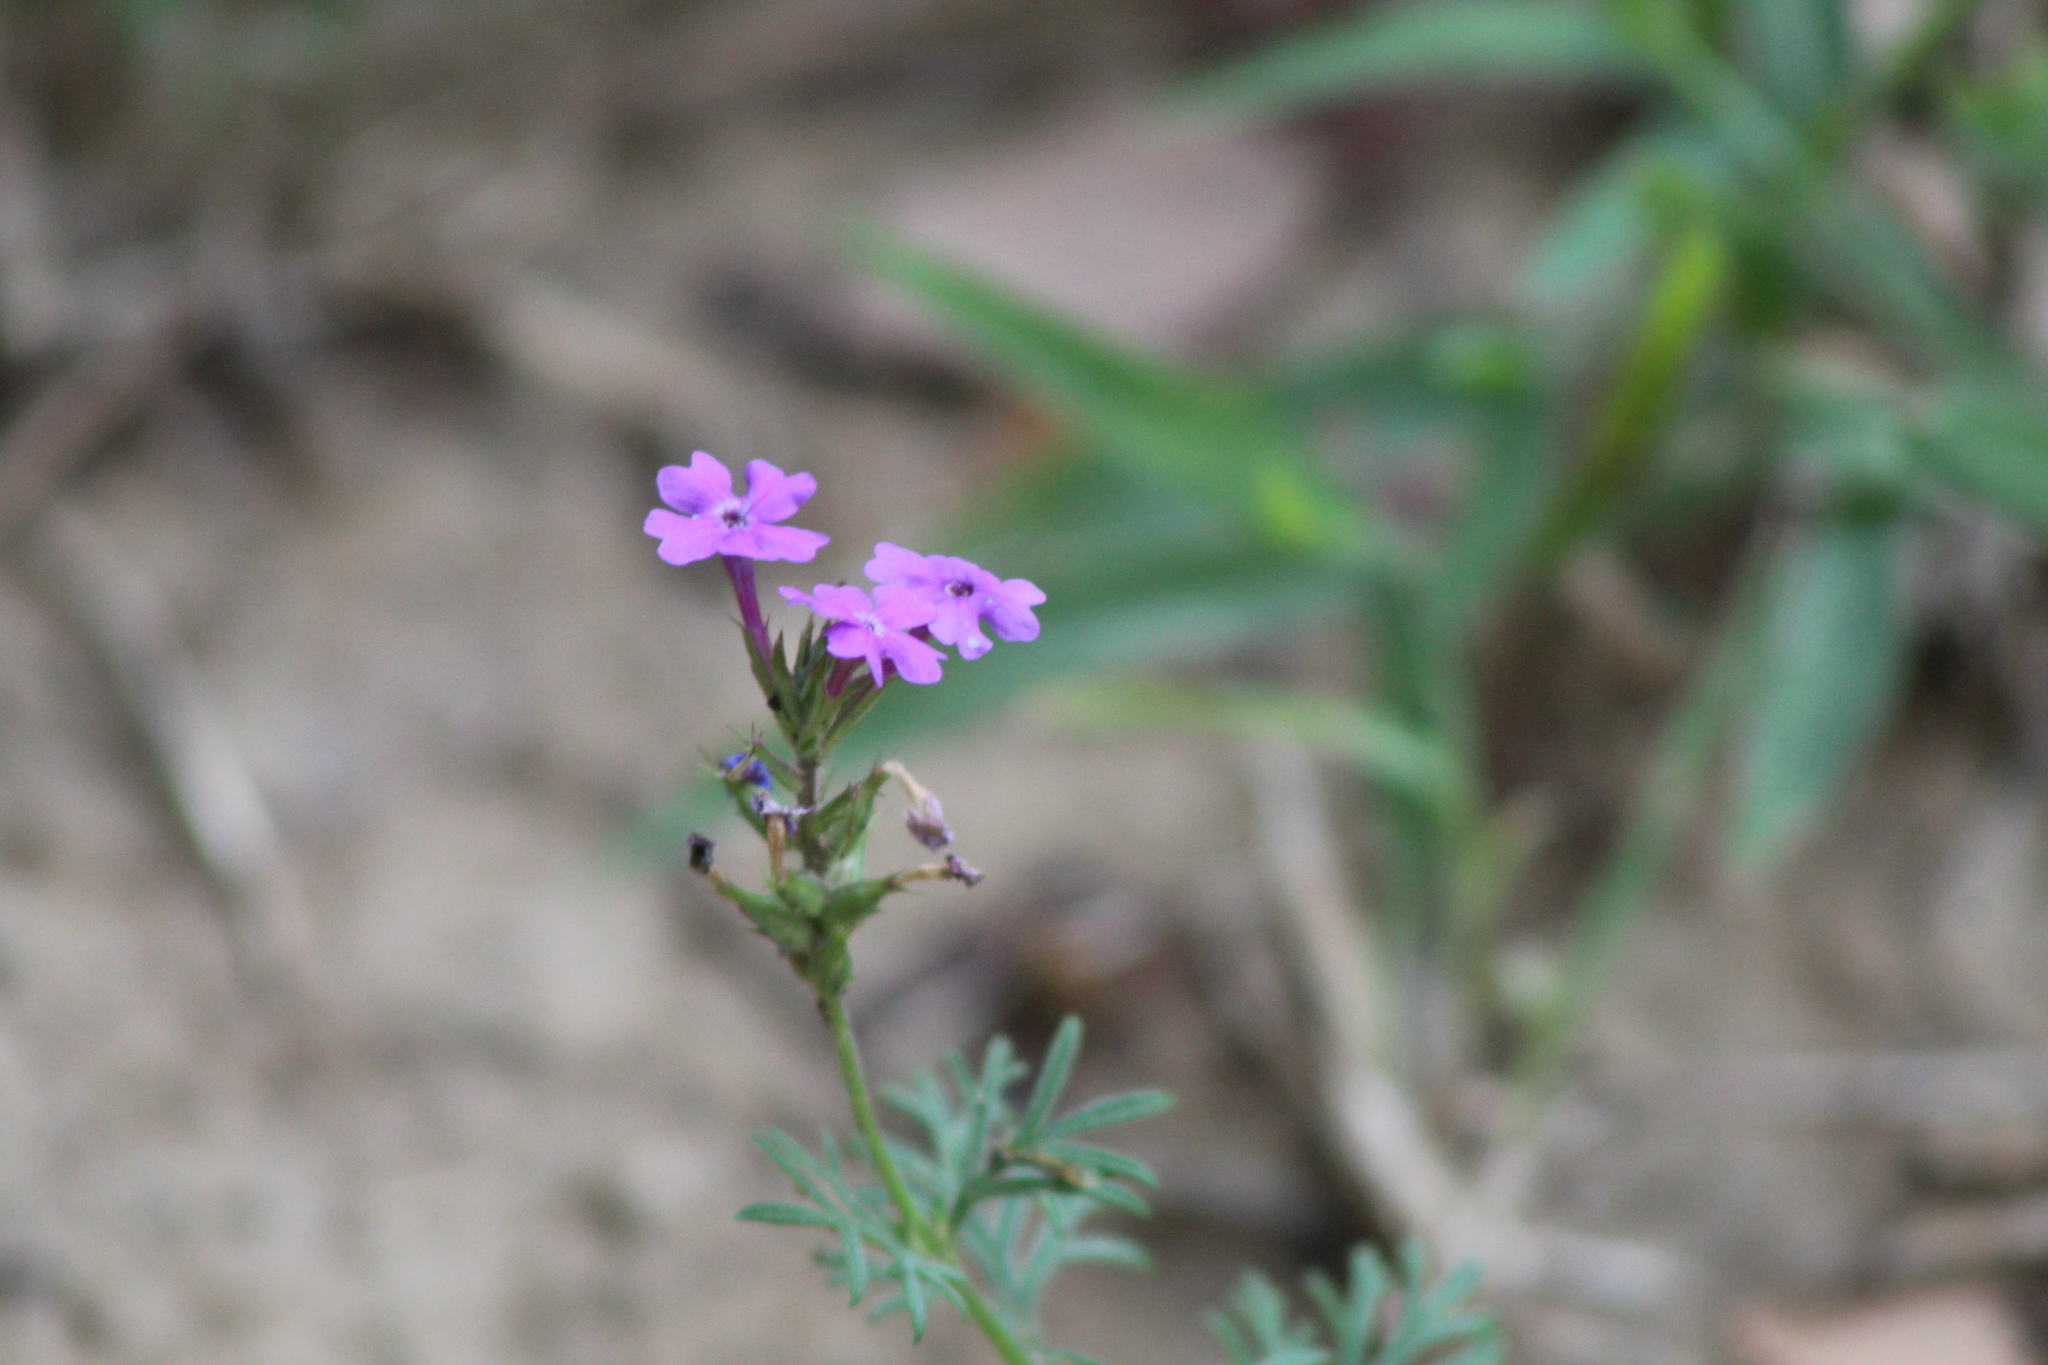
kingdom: Plantae
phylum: Tracheophyta
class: Magnoliopsida
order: Lamiales
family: Verbenaceae
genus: Verbena
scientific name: Verbena bipinnatifida
